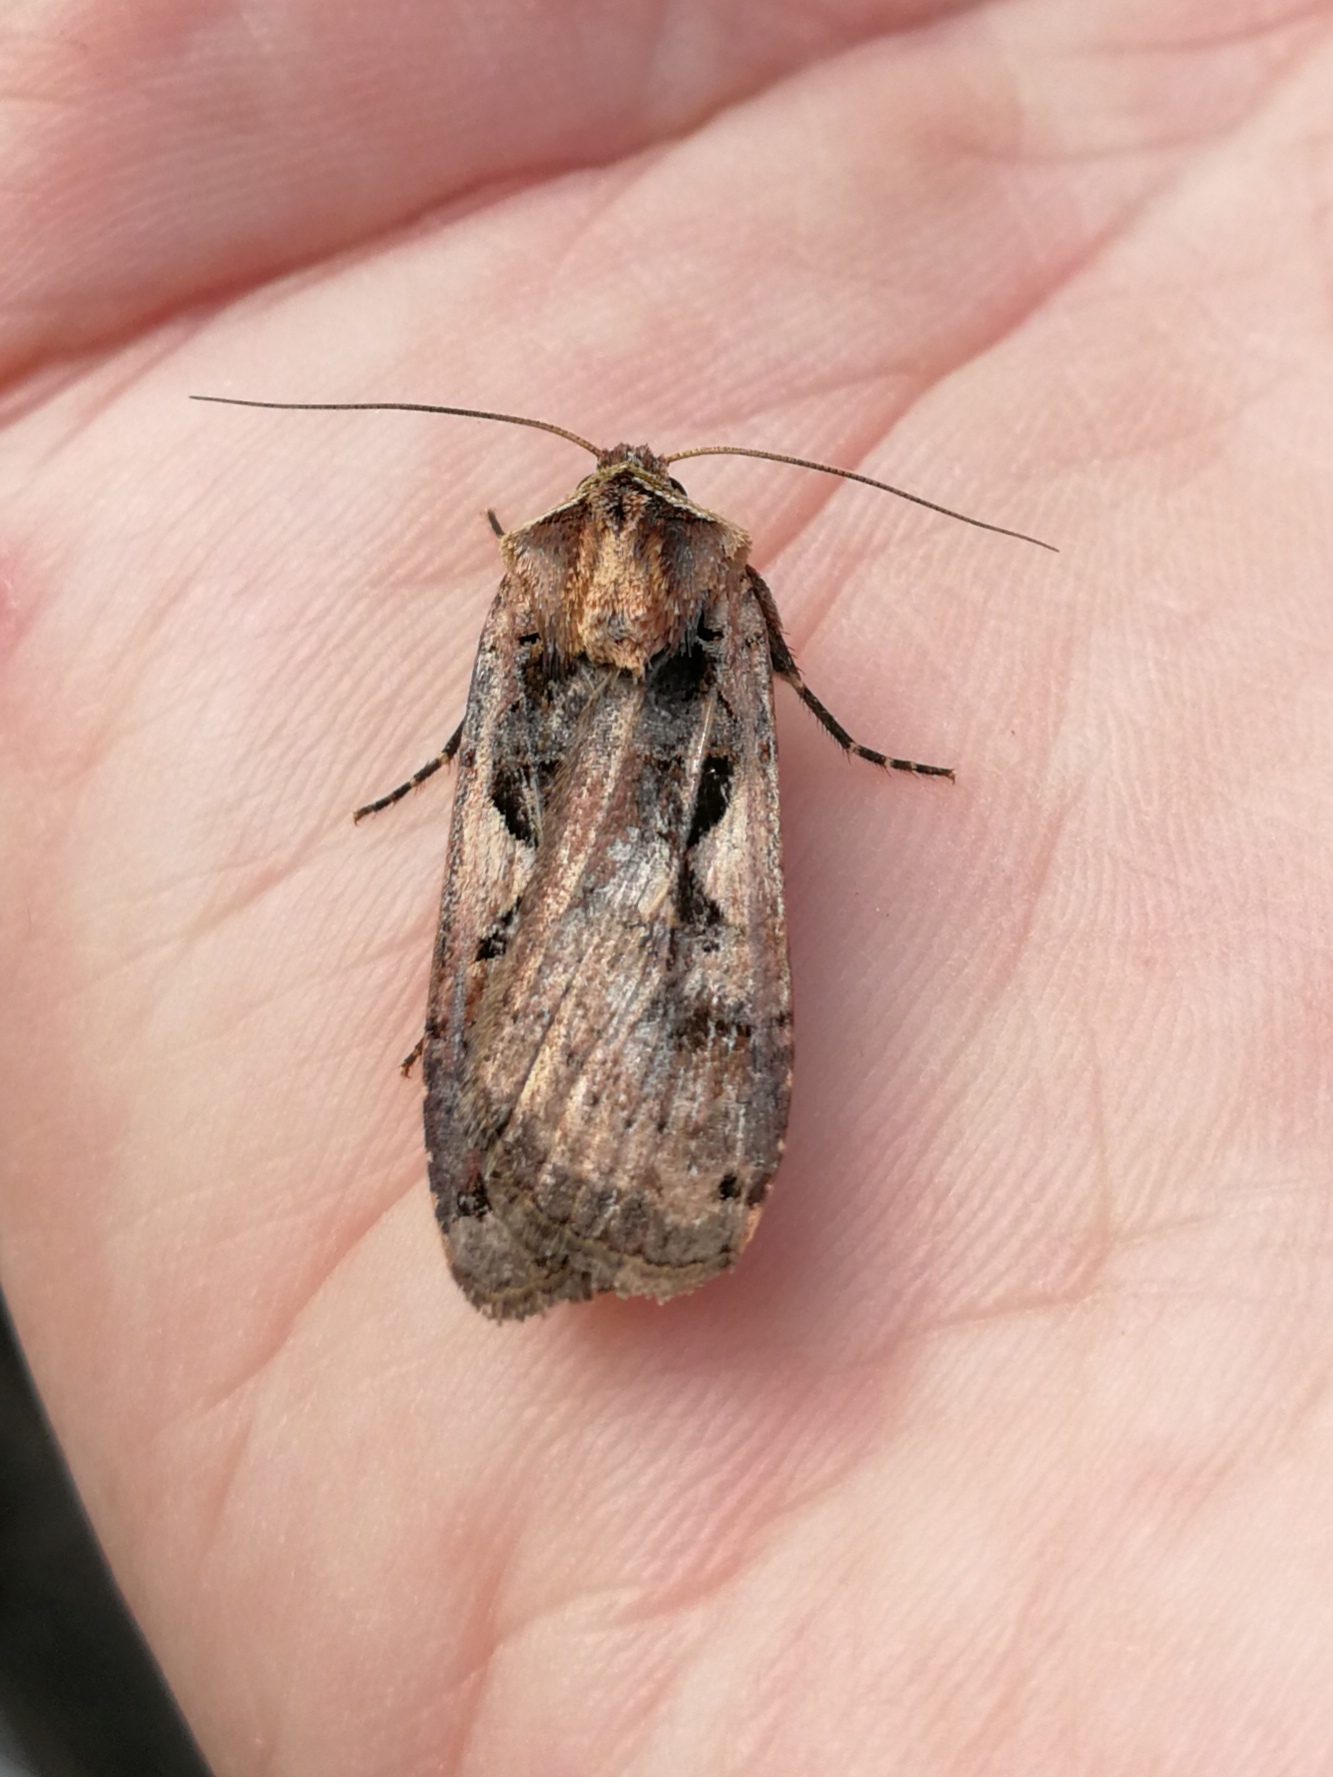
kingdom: Animalia
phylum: Arthropoda
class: Insecta
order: Lepidoptera
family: Noctuidae
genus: Xestia
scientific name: Xestia c-nigrum
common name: Setaceous hebrew character
